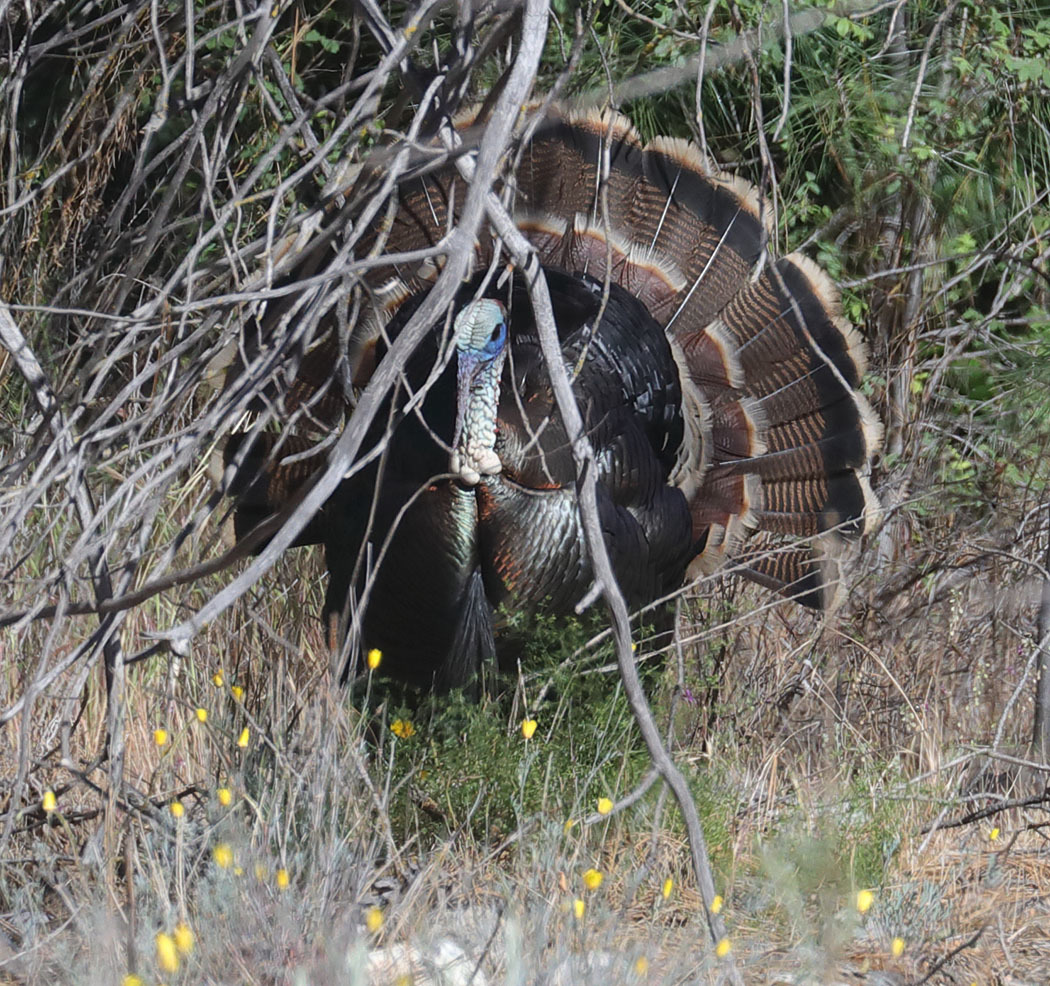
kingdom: Animalia
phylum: Chordata
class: Aves
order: Galliformes
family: Phasianidae
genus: Meleagris
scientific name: Meleagris gallopavo
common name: Wild turkey
